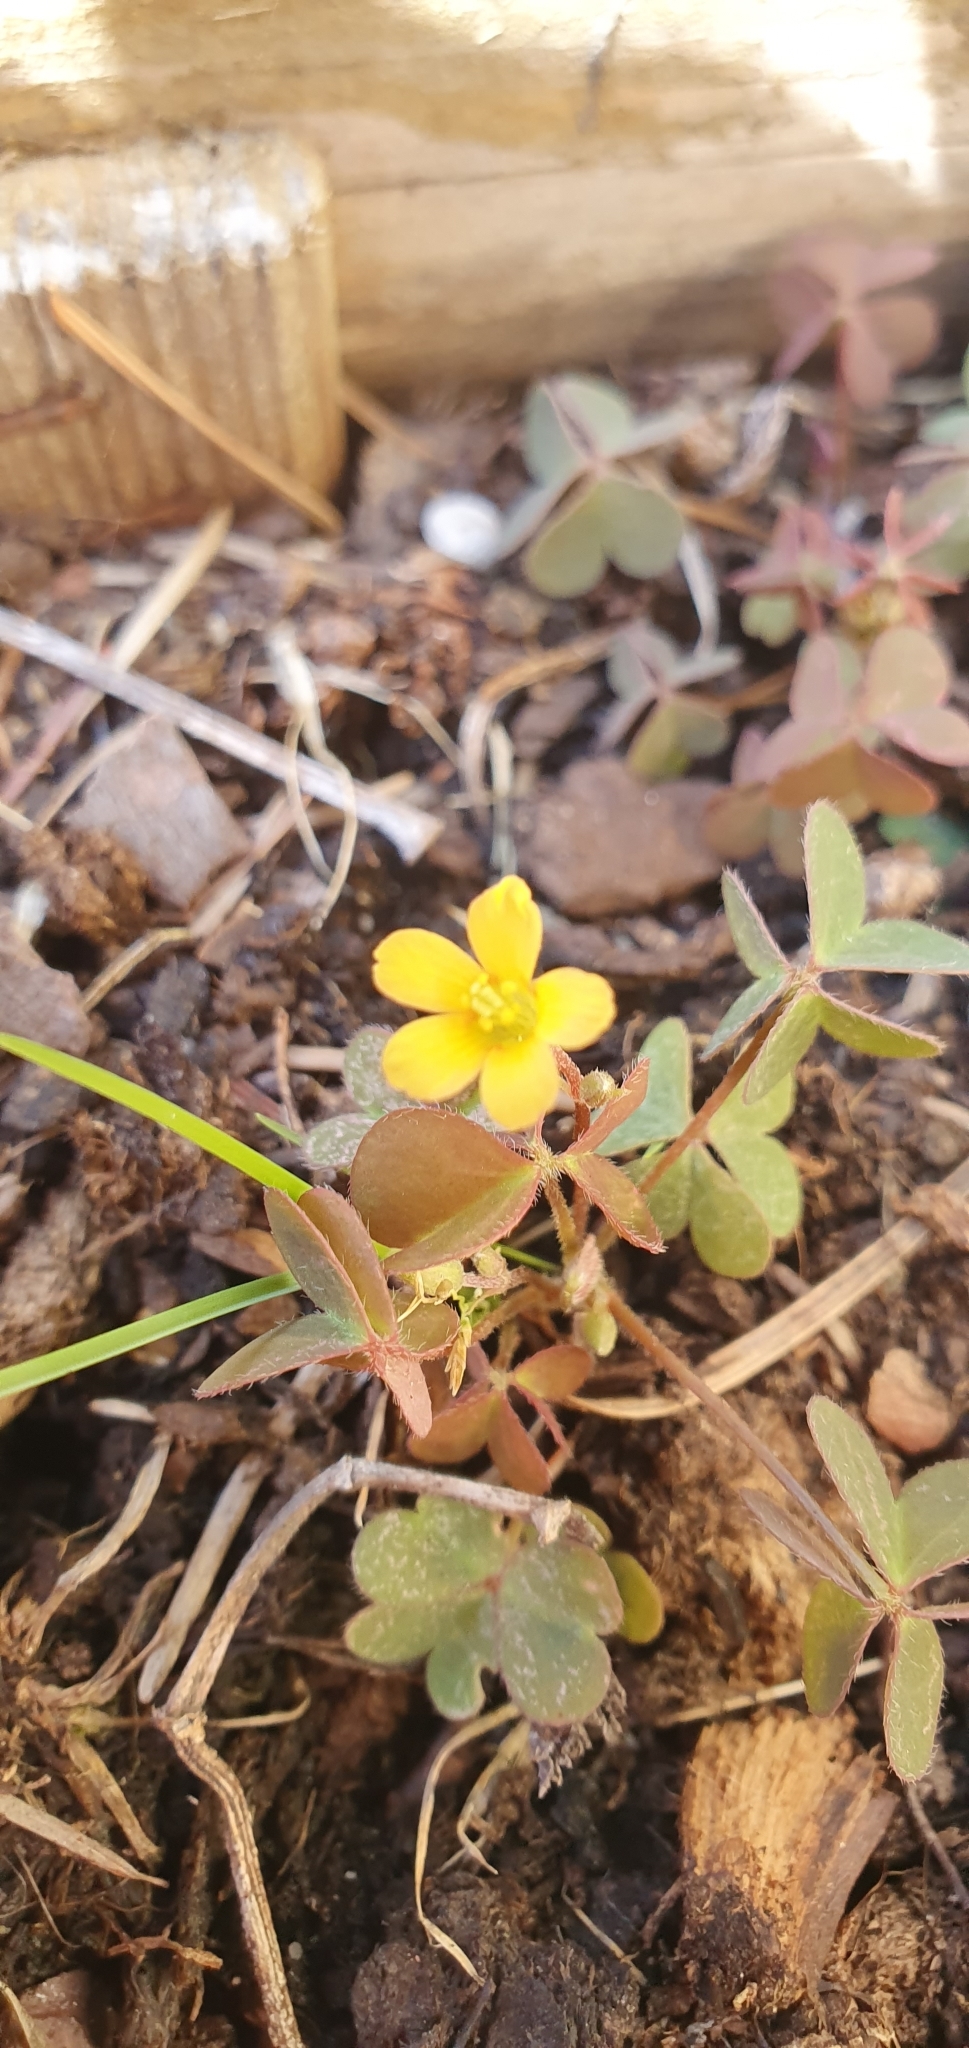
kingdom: Plantae
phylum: Tracheophyta
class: Magnoliopsida
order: Oxalidales
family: Oxalidaceae
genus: Oxalis
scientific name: Oxalis corniculata
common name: Procumbent yellow-sorrel
